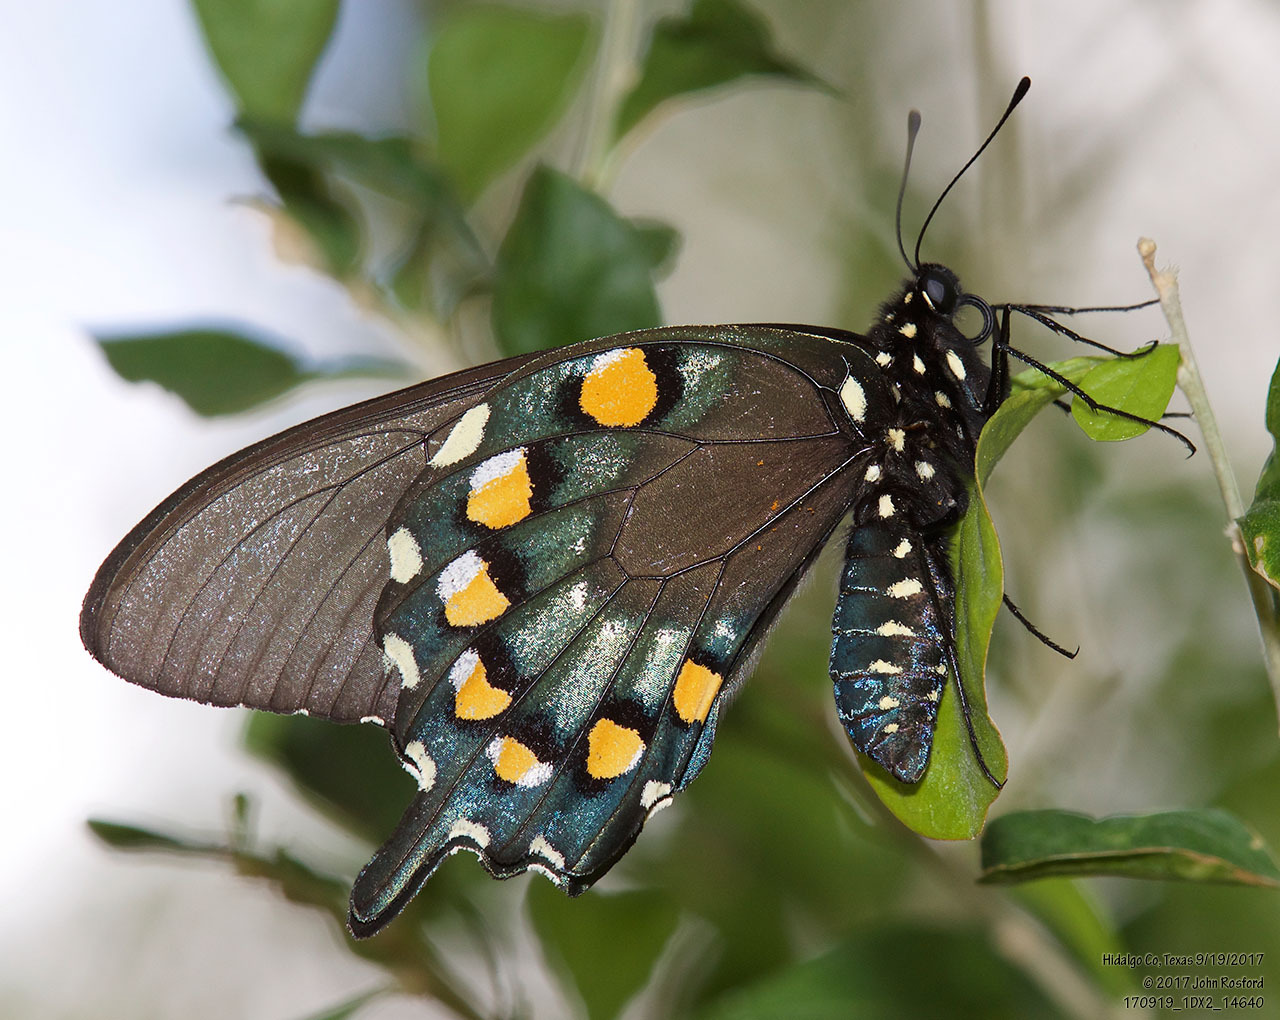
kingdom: Animalia
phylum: Arthropoda
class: Insecta
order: Lepidoptera
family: Papilionidae
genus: Battus
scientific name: Battus philenor
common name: Pipevine swallowtail
